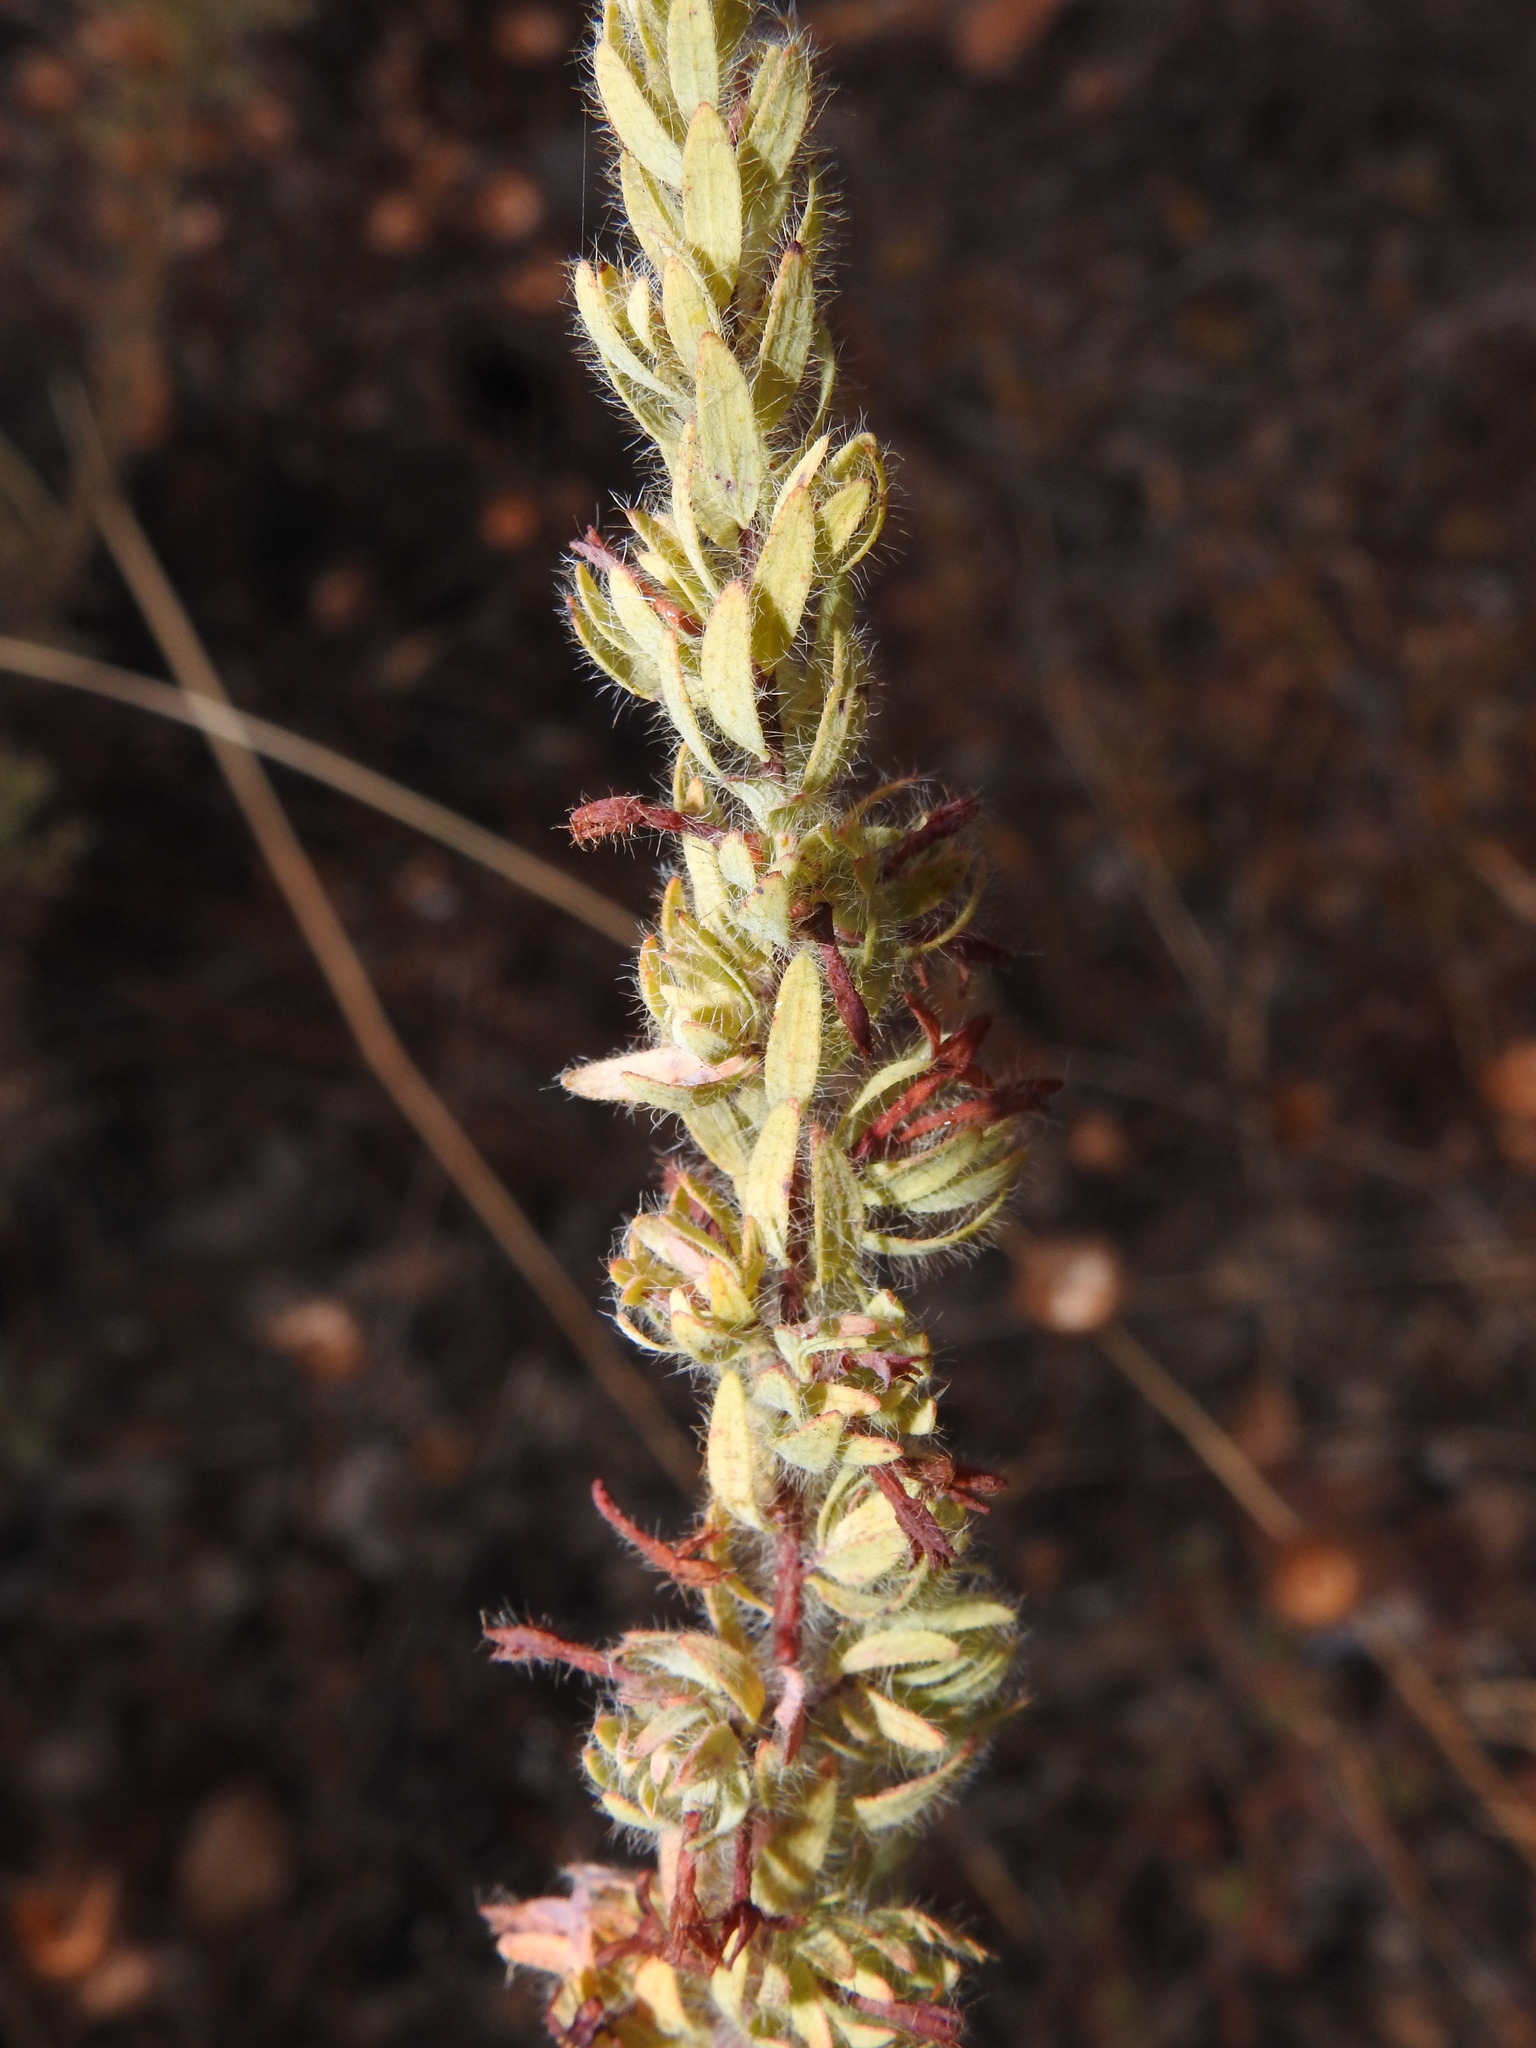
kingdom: Plantae
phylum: Tracheophyta
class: Magnoliopsida
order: Malvales
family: Thymelaeaceae
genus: Thymelaea
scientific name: Thymelaea villosa
